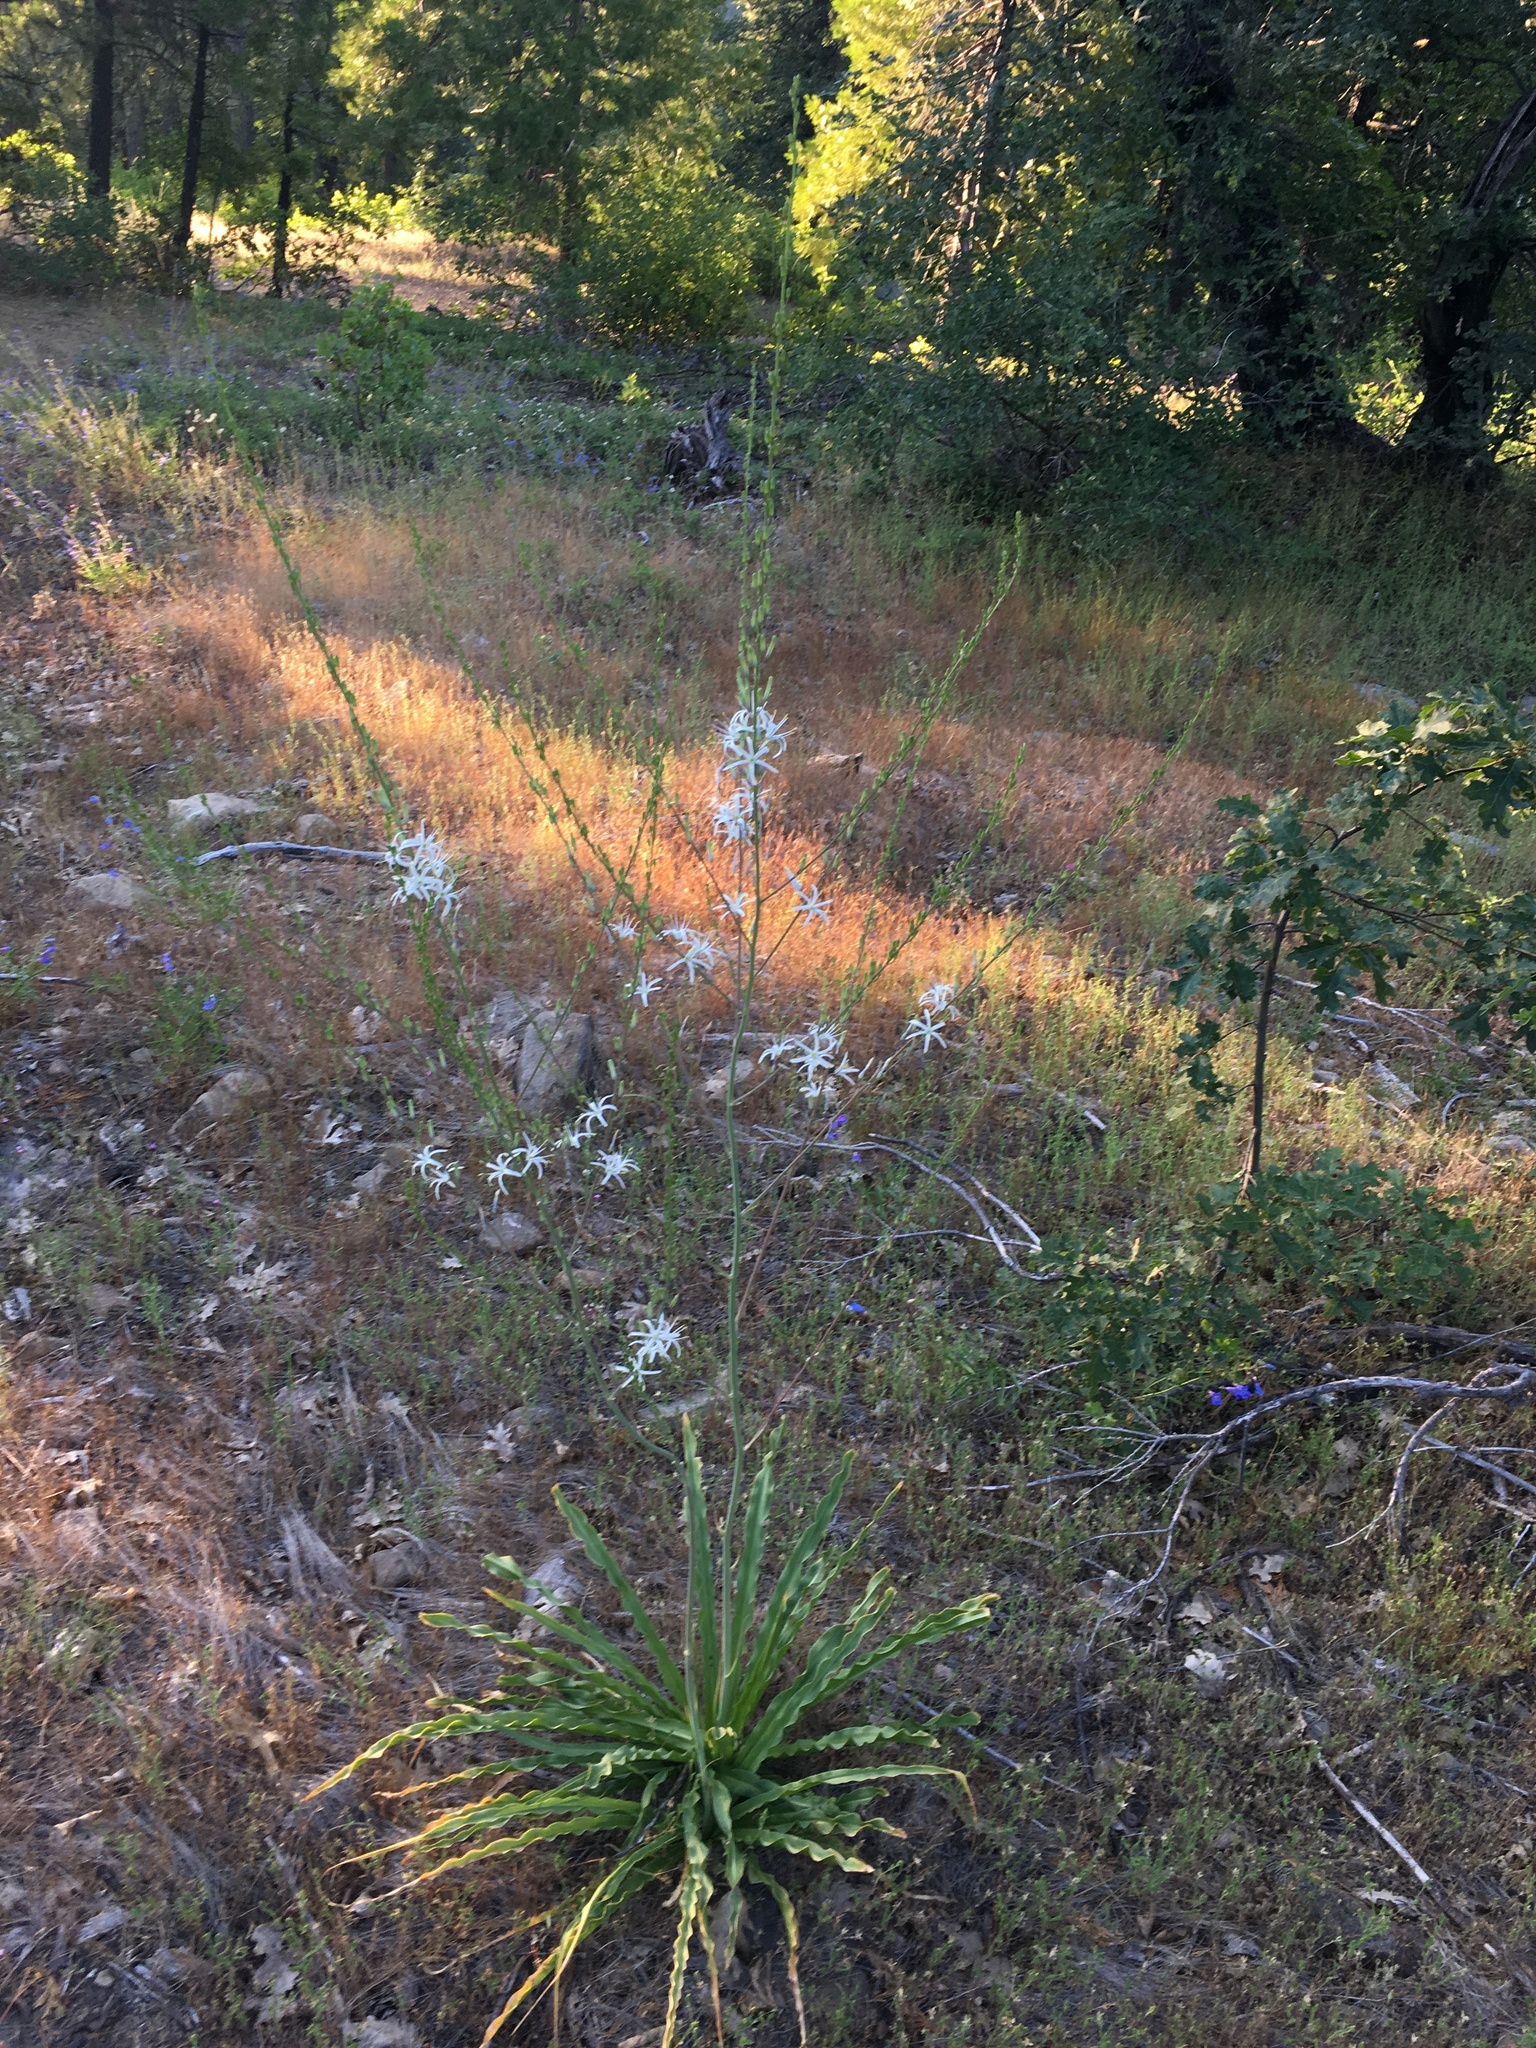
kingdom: Plantae
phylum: Tracheophyta
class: Liliopsida
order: Asparagales
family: Asparagaceae
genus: Chlorogalum
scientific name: Chlorogalum pomeridianum
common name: Amole
